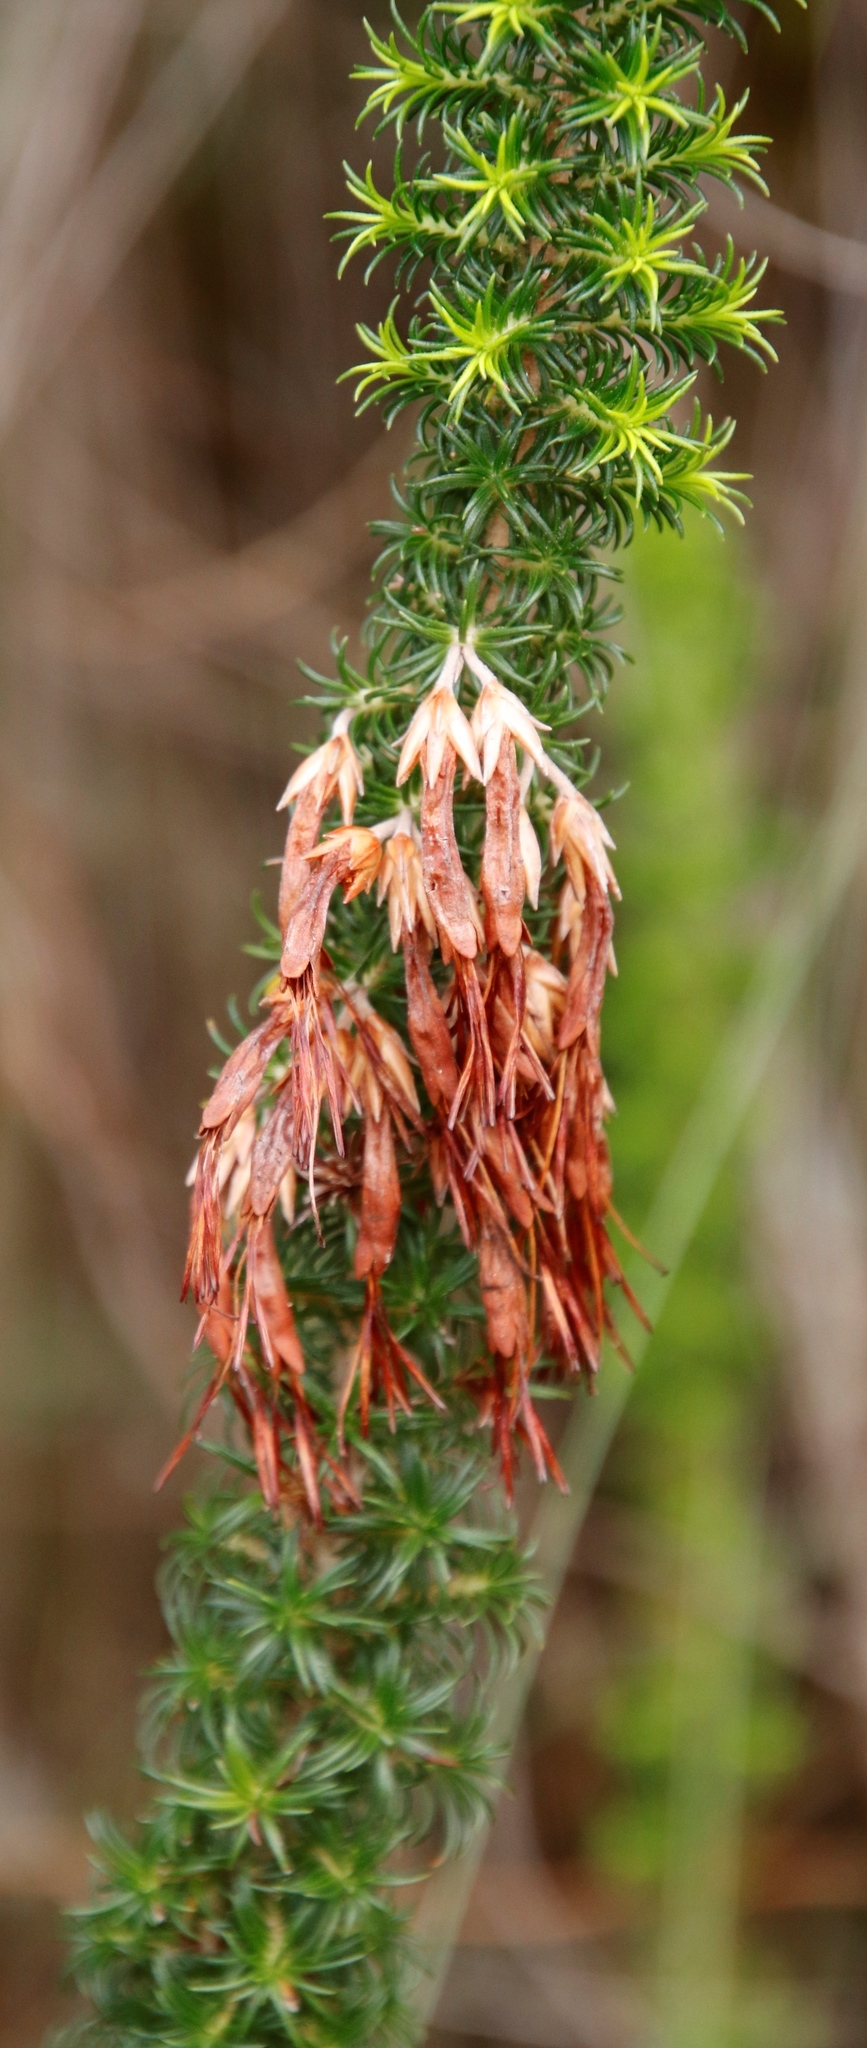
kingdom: Plantae
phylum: Tracheophyta
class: Magnoliopsida
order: Ericales
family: Ericaceae
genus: Erica
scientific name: Erica coccinea
